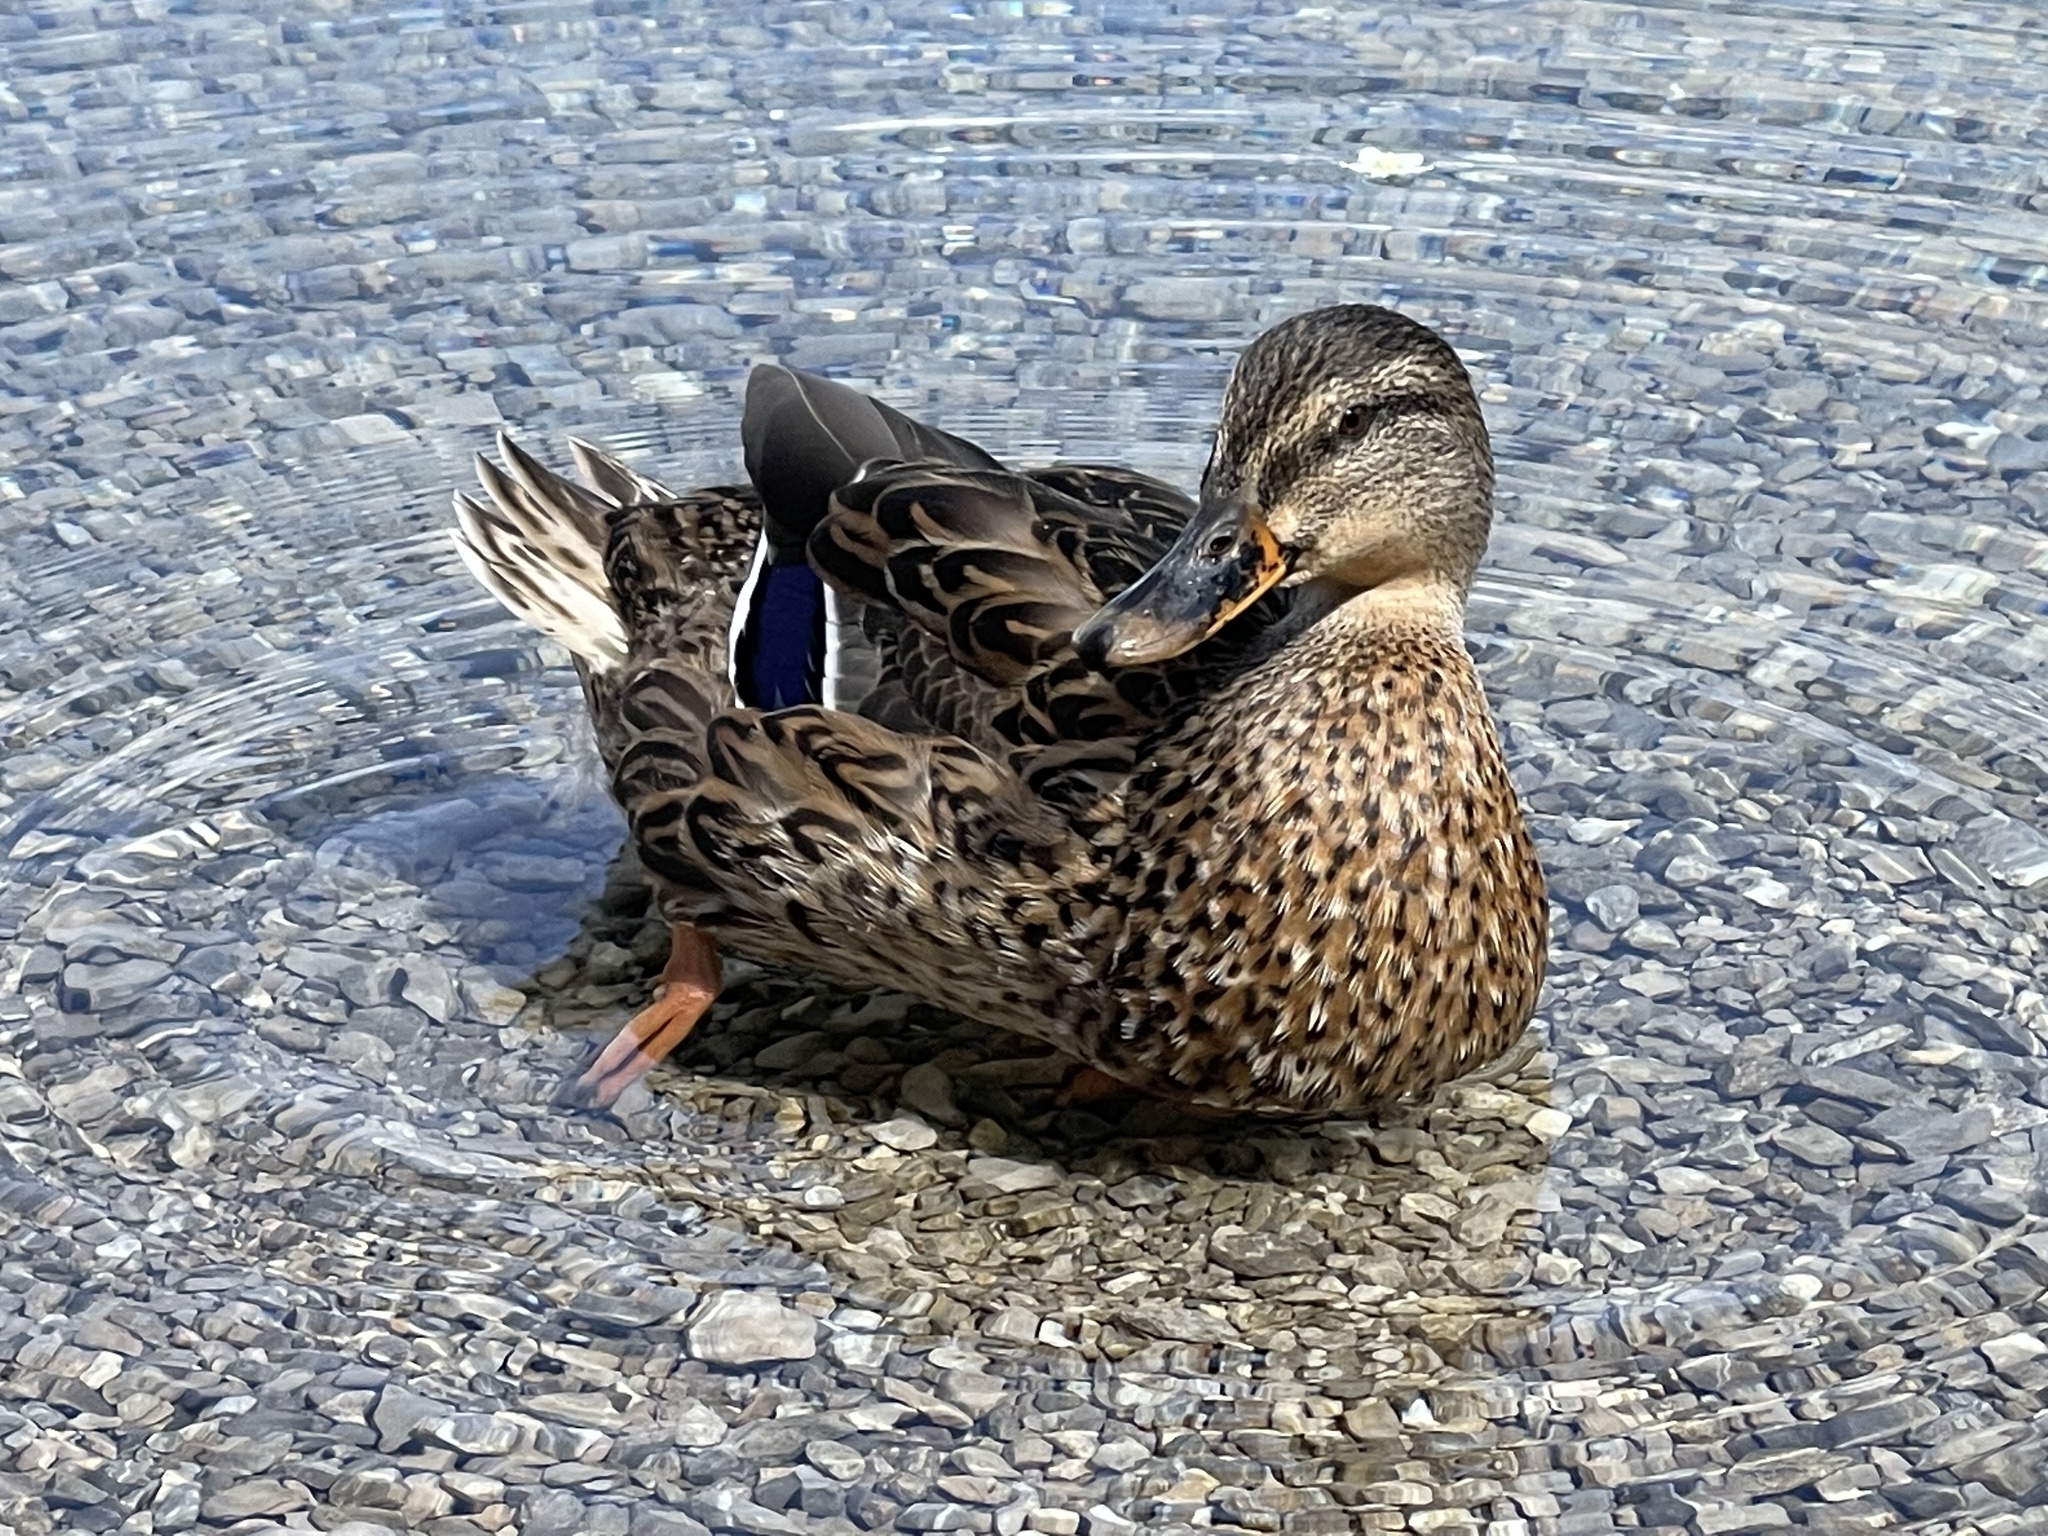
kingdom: Animalia
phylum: Chordata
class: Aves
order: Anseriformes
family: Anatidae
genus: Anas
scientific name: Anas platyrhynchos
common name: Mallard
